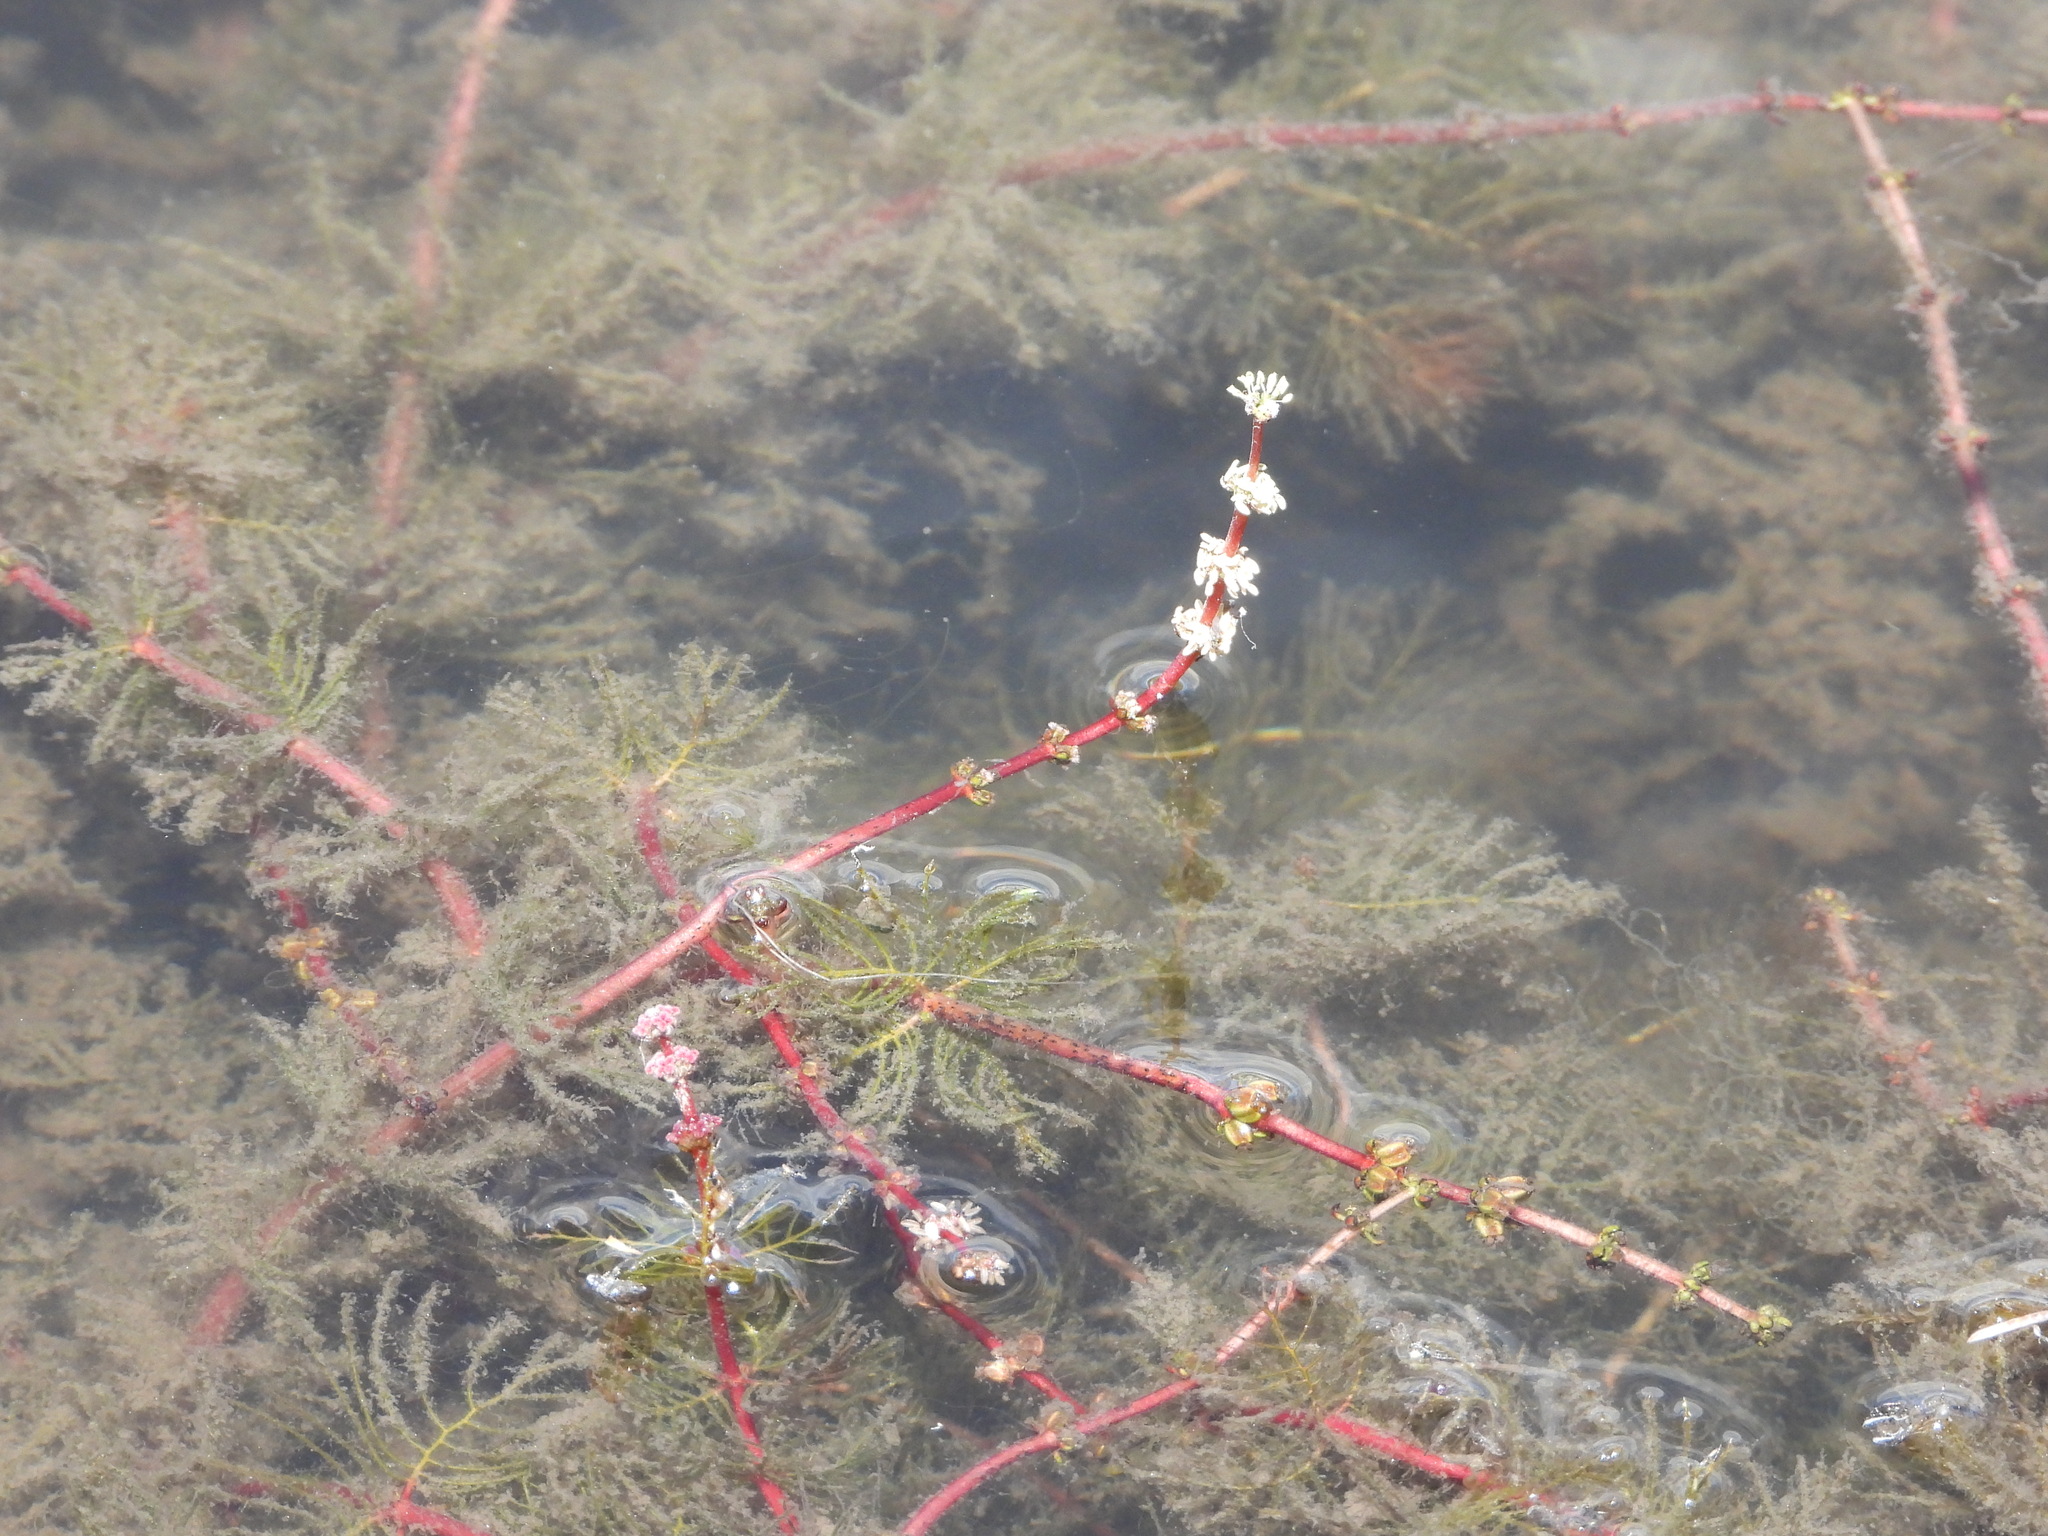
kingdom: Plantae
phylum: Tracheophyta
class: Magnoliopsida
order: Saxifragales
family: Haloragaceae
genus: Myriophyllum
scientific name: Myriophyllum sibiricum
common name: Siberian water-milfoil
